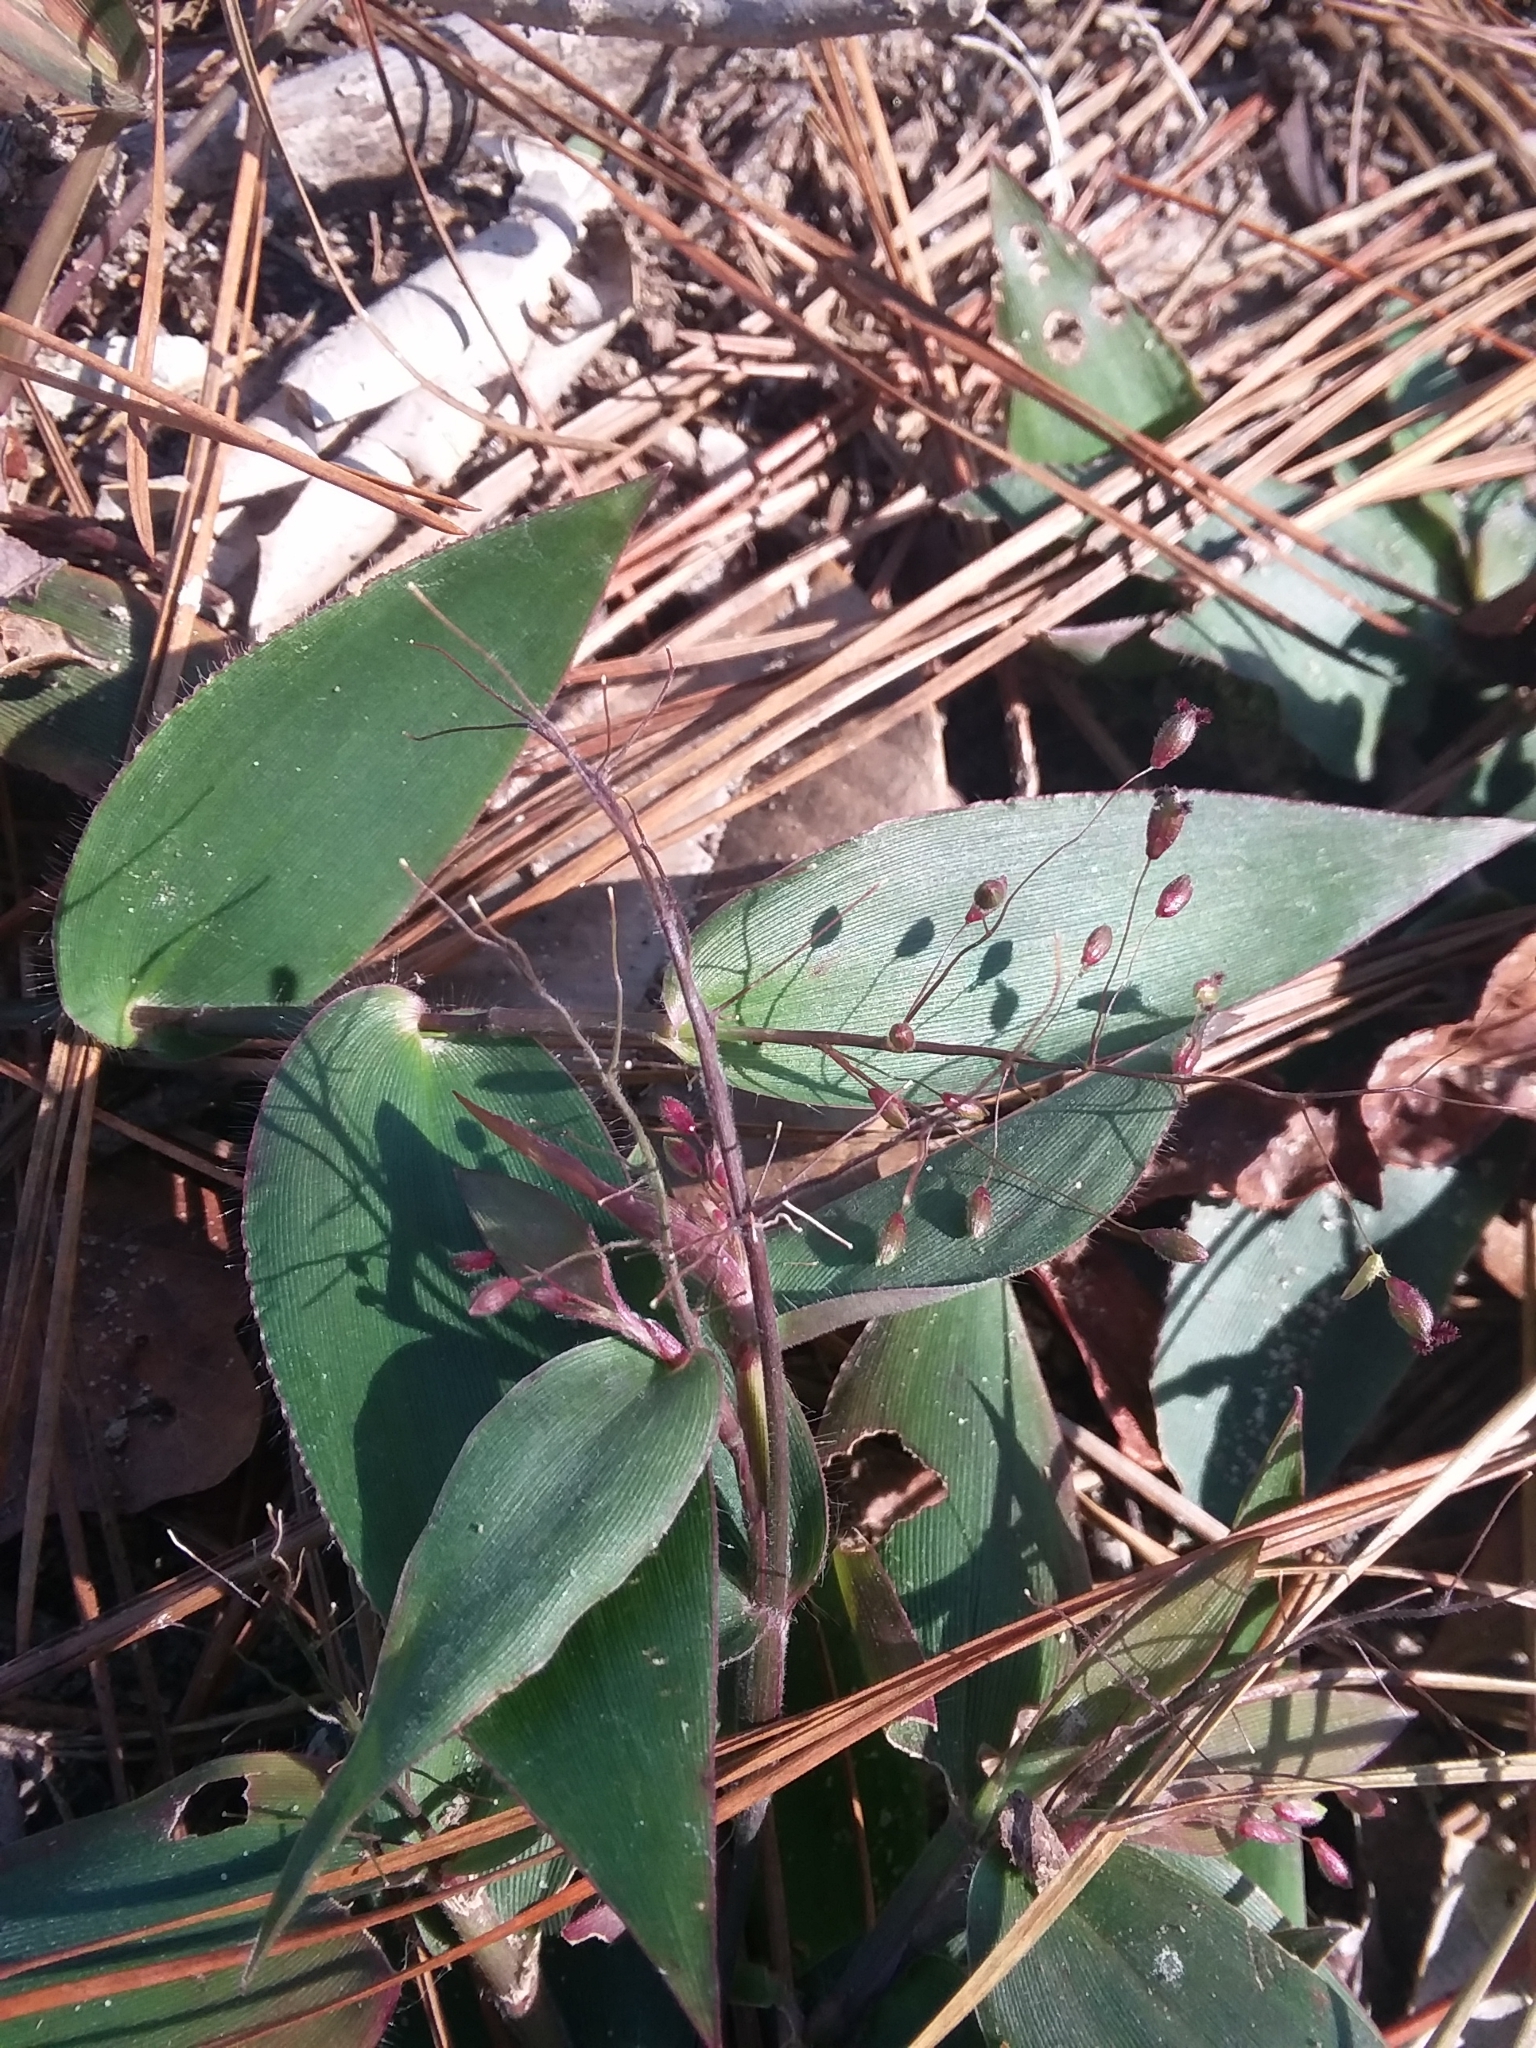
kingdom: Plantae
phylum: Tracheophyta
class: Liliopsida
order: Poales
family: Poaceae
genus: Dichanthelium
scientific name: Dichanthelium commutatum
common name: Variable witchgrass
